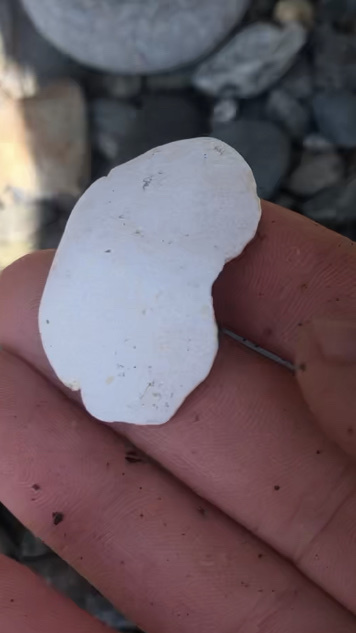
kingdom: Animalia
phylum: Mollusca
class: Polyplacophora
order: Chitonida
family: Acanthochitonidae
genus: Cryptochiton
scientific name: Cryptochiton stelleri
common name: Giant pacific chiton
